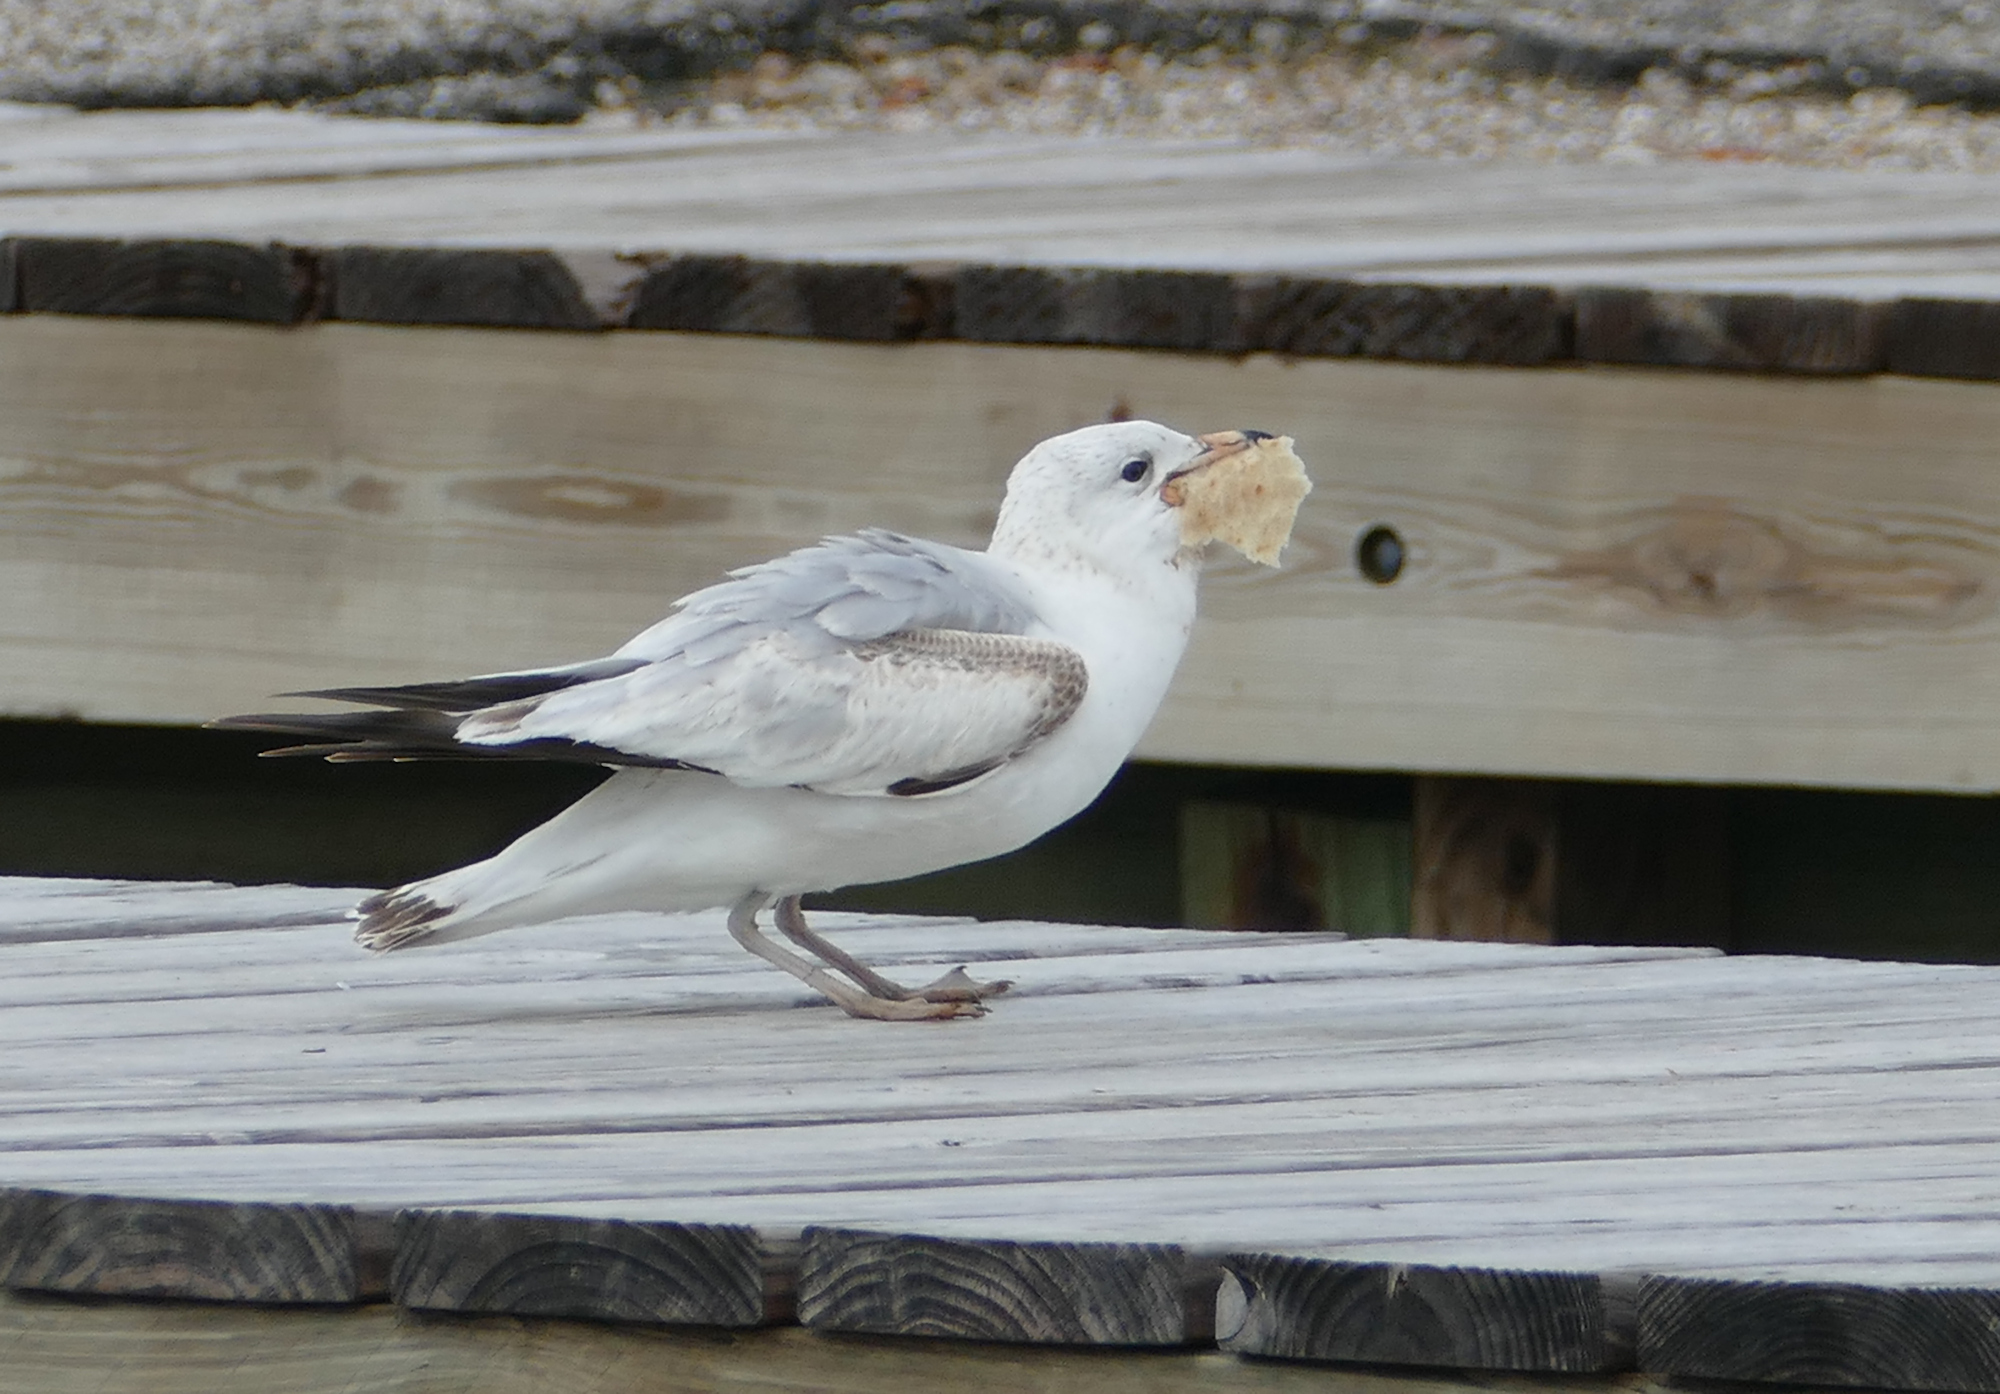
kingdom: Animalia
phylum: Chordata
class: Aves
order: Charadriiformes
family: Laridae
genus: Larus
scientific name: Larus delawarensis
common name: Ring-billed gull
